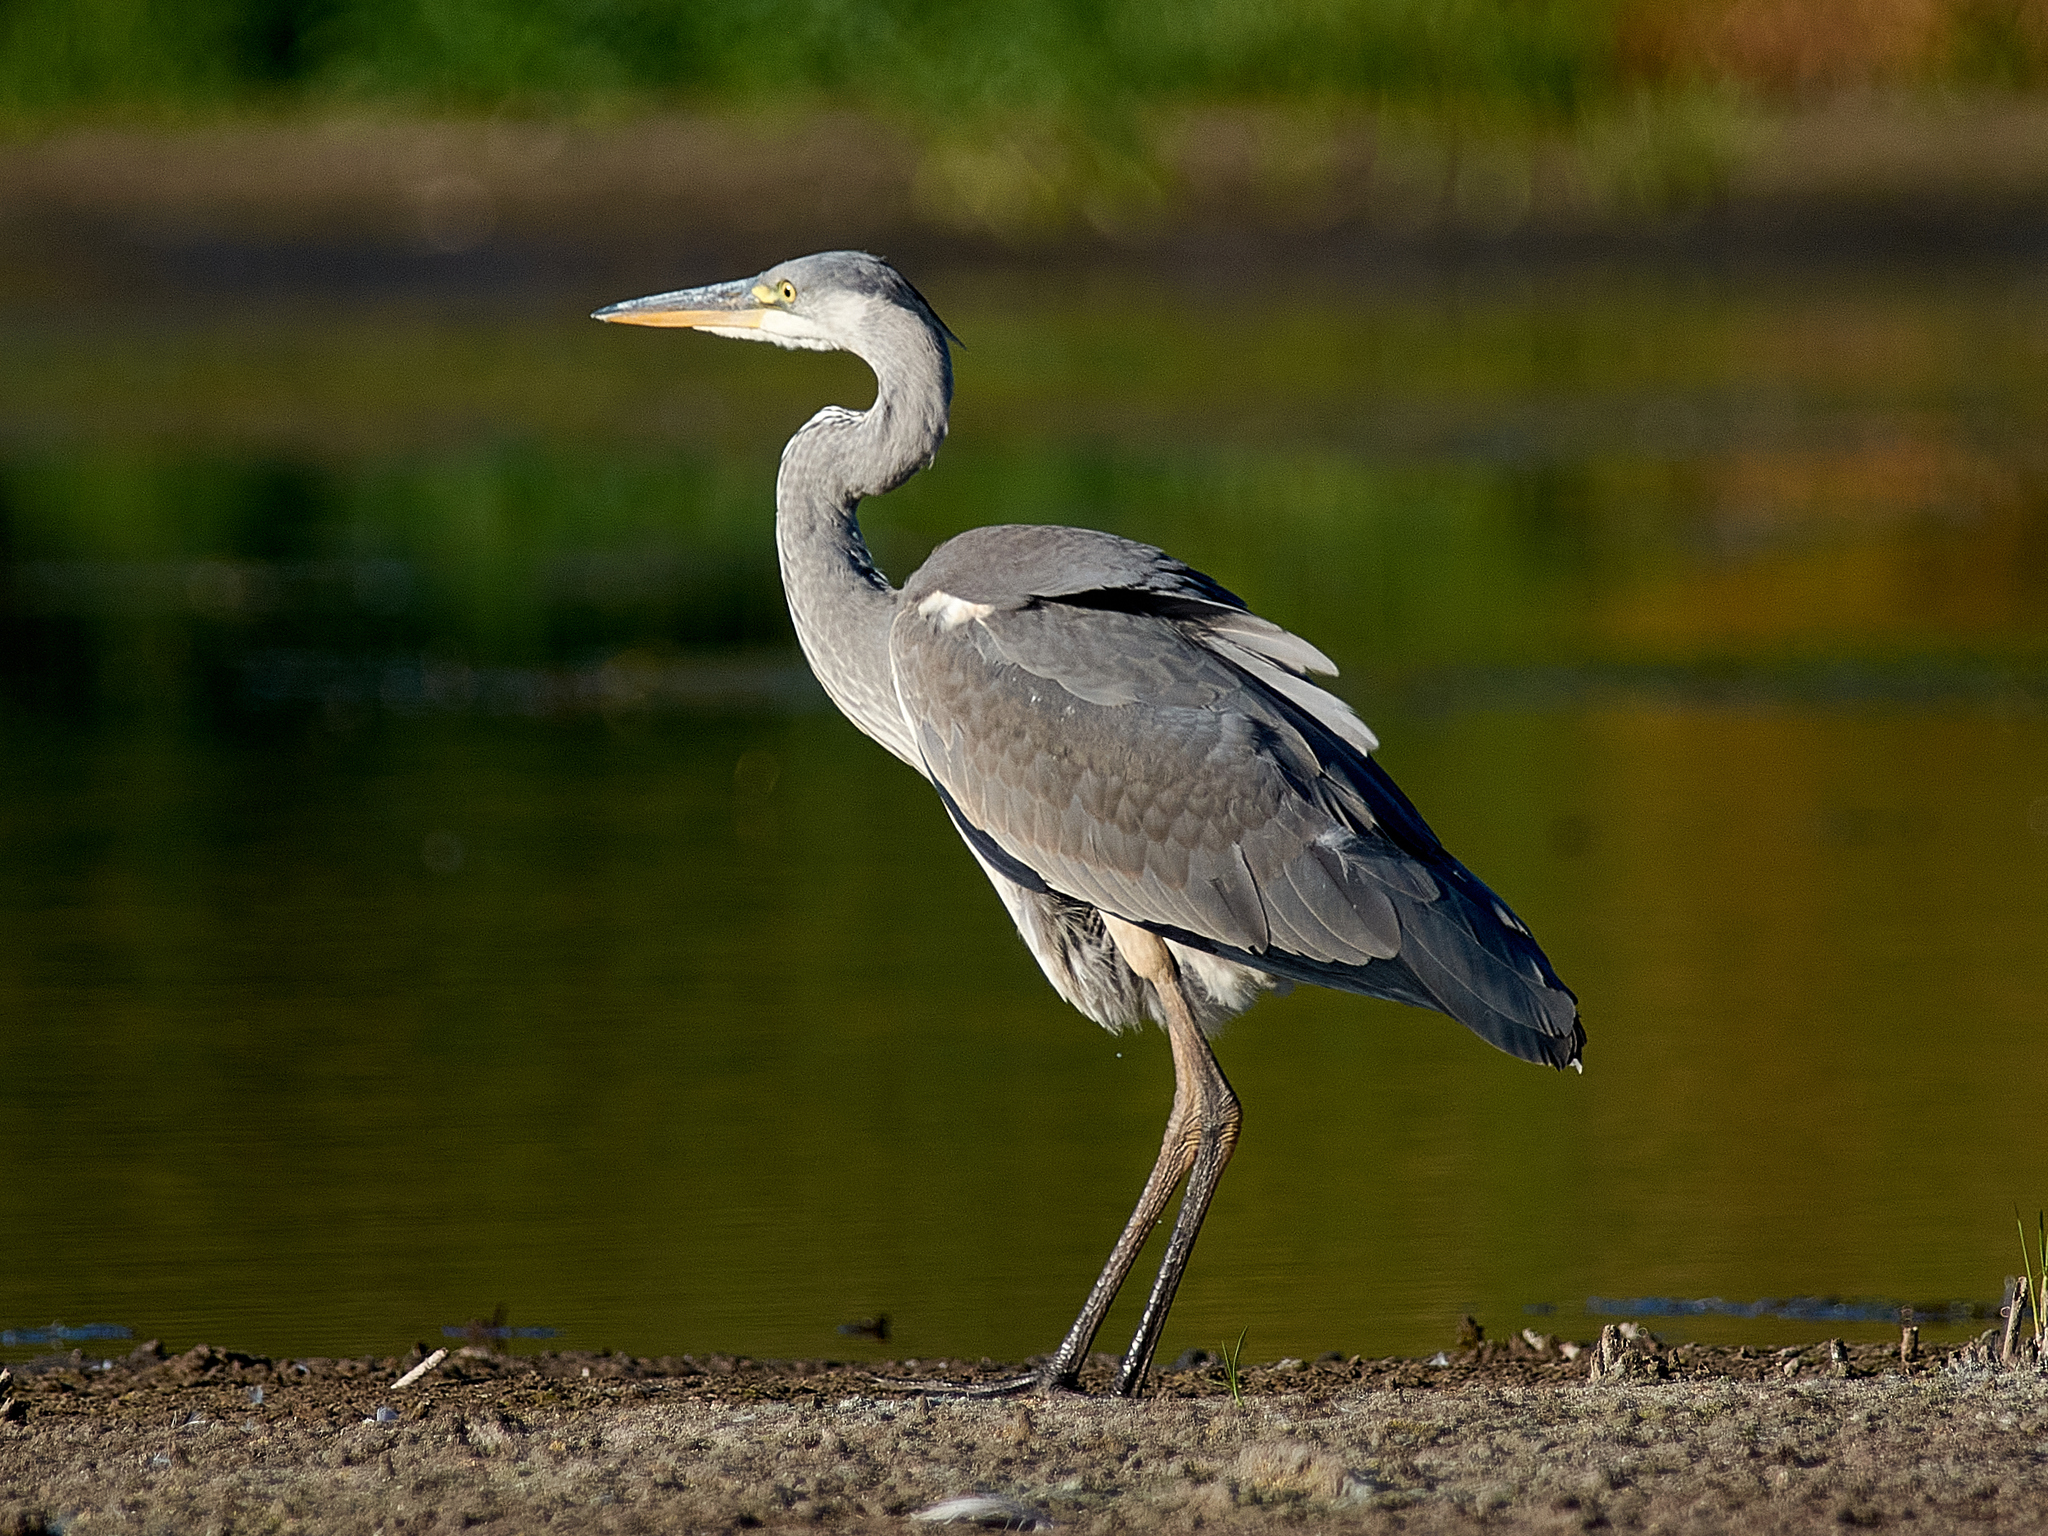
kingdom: Animalia
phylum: Chordata
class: Aves
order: Pelecaniformes
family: Ardeidae
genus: Ardea
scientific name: Ardea cinerea
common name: Grey heron
